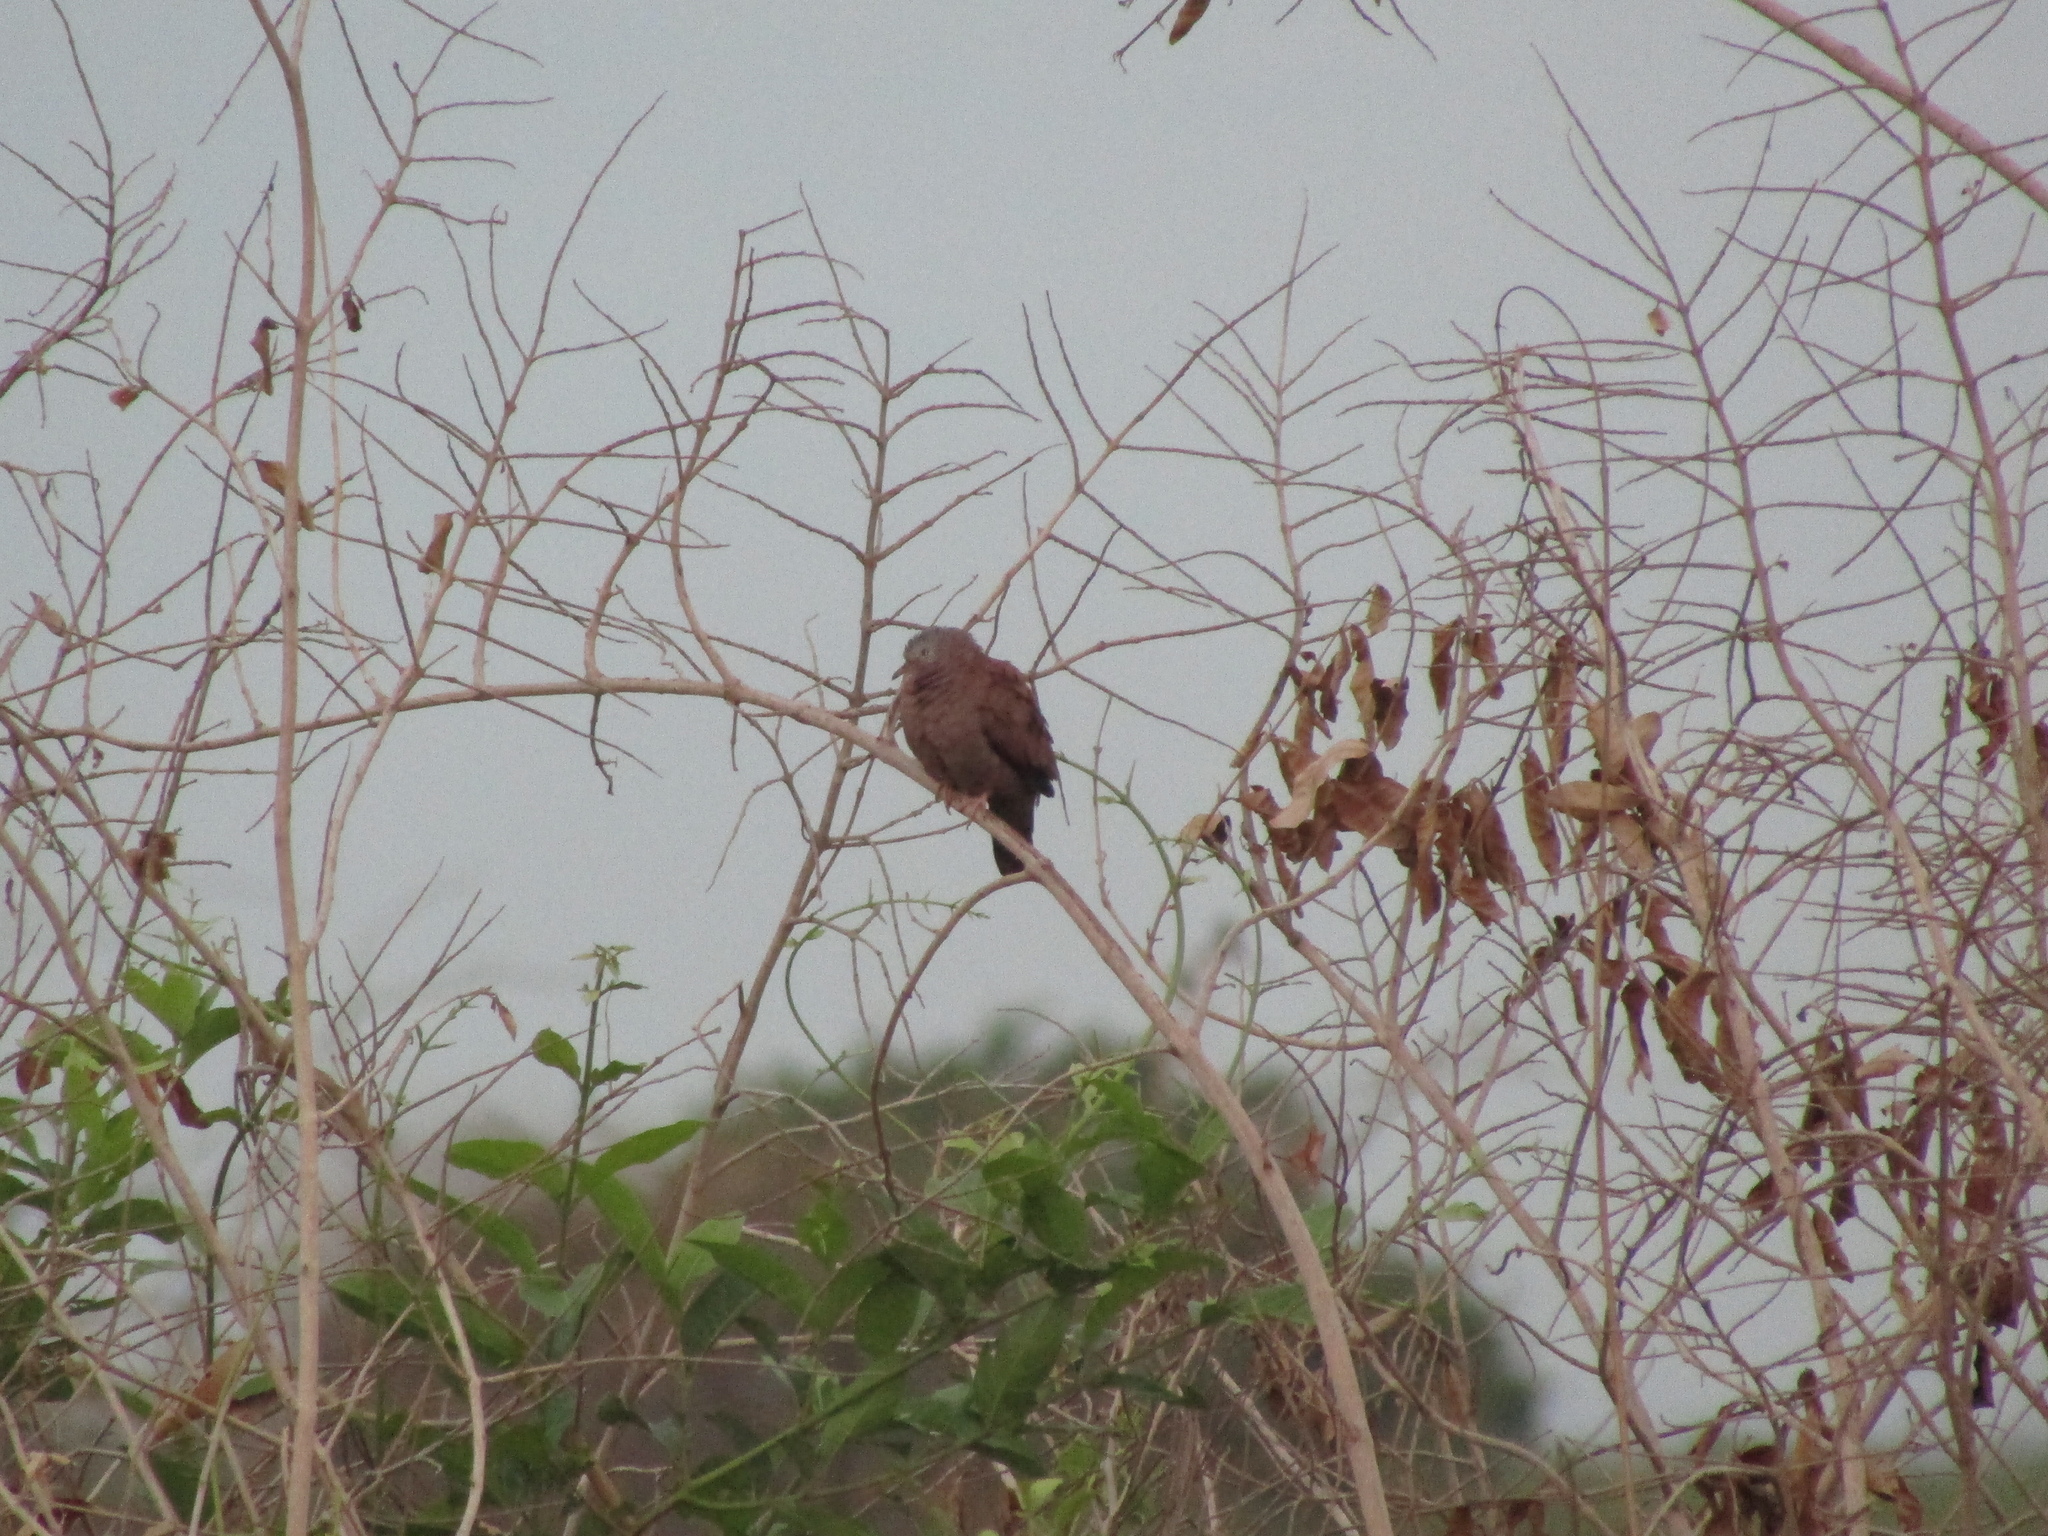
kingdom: Animalia
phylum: Chordata
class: Aves
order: Columbiformes
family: Columbidae
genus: Columbina
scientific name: Columbina talpacoti
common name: Ruddy ground dove
